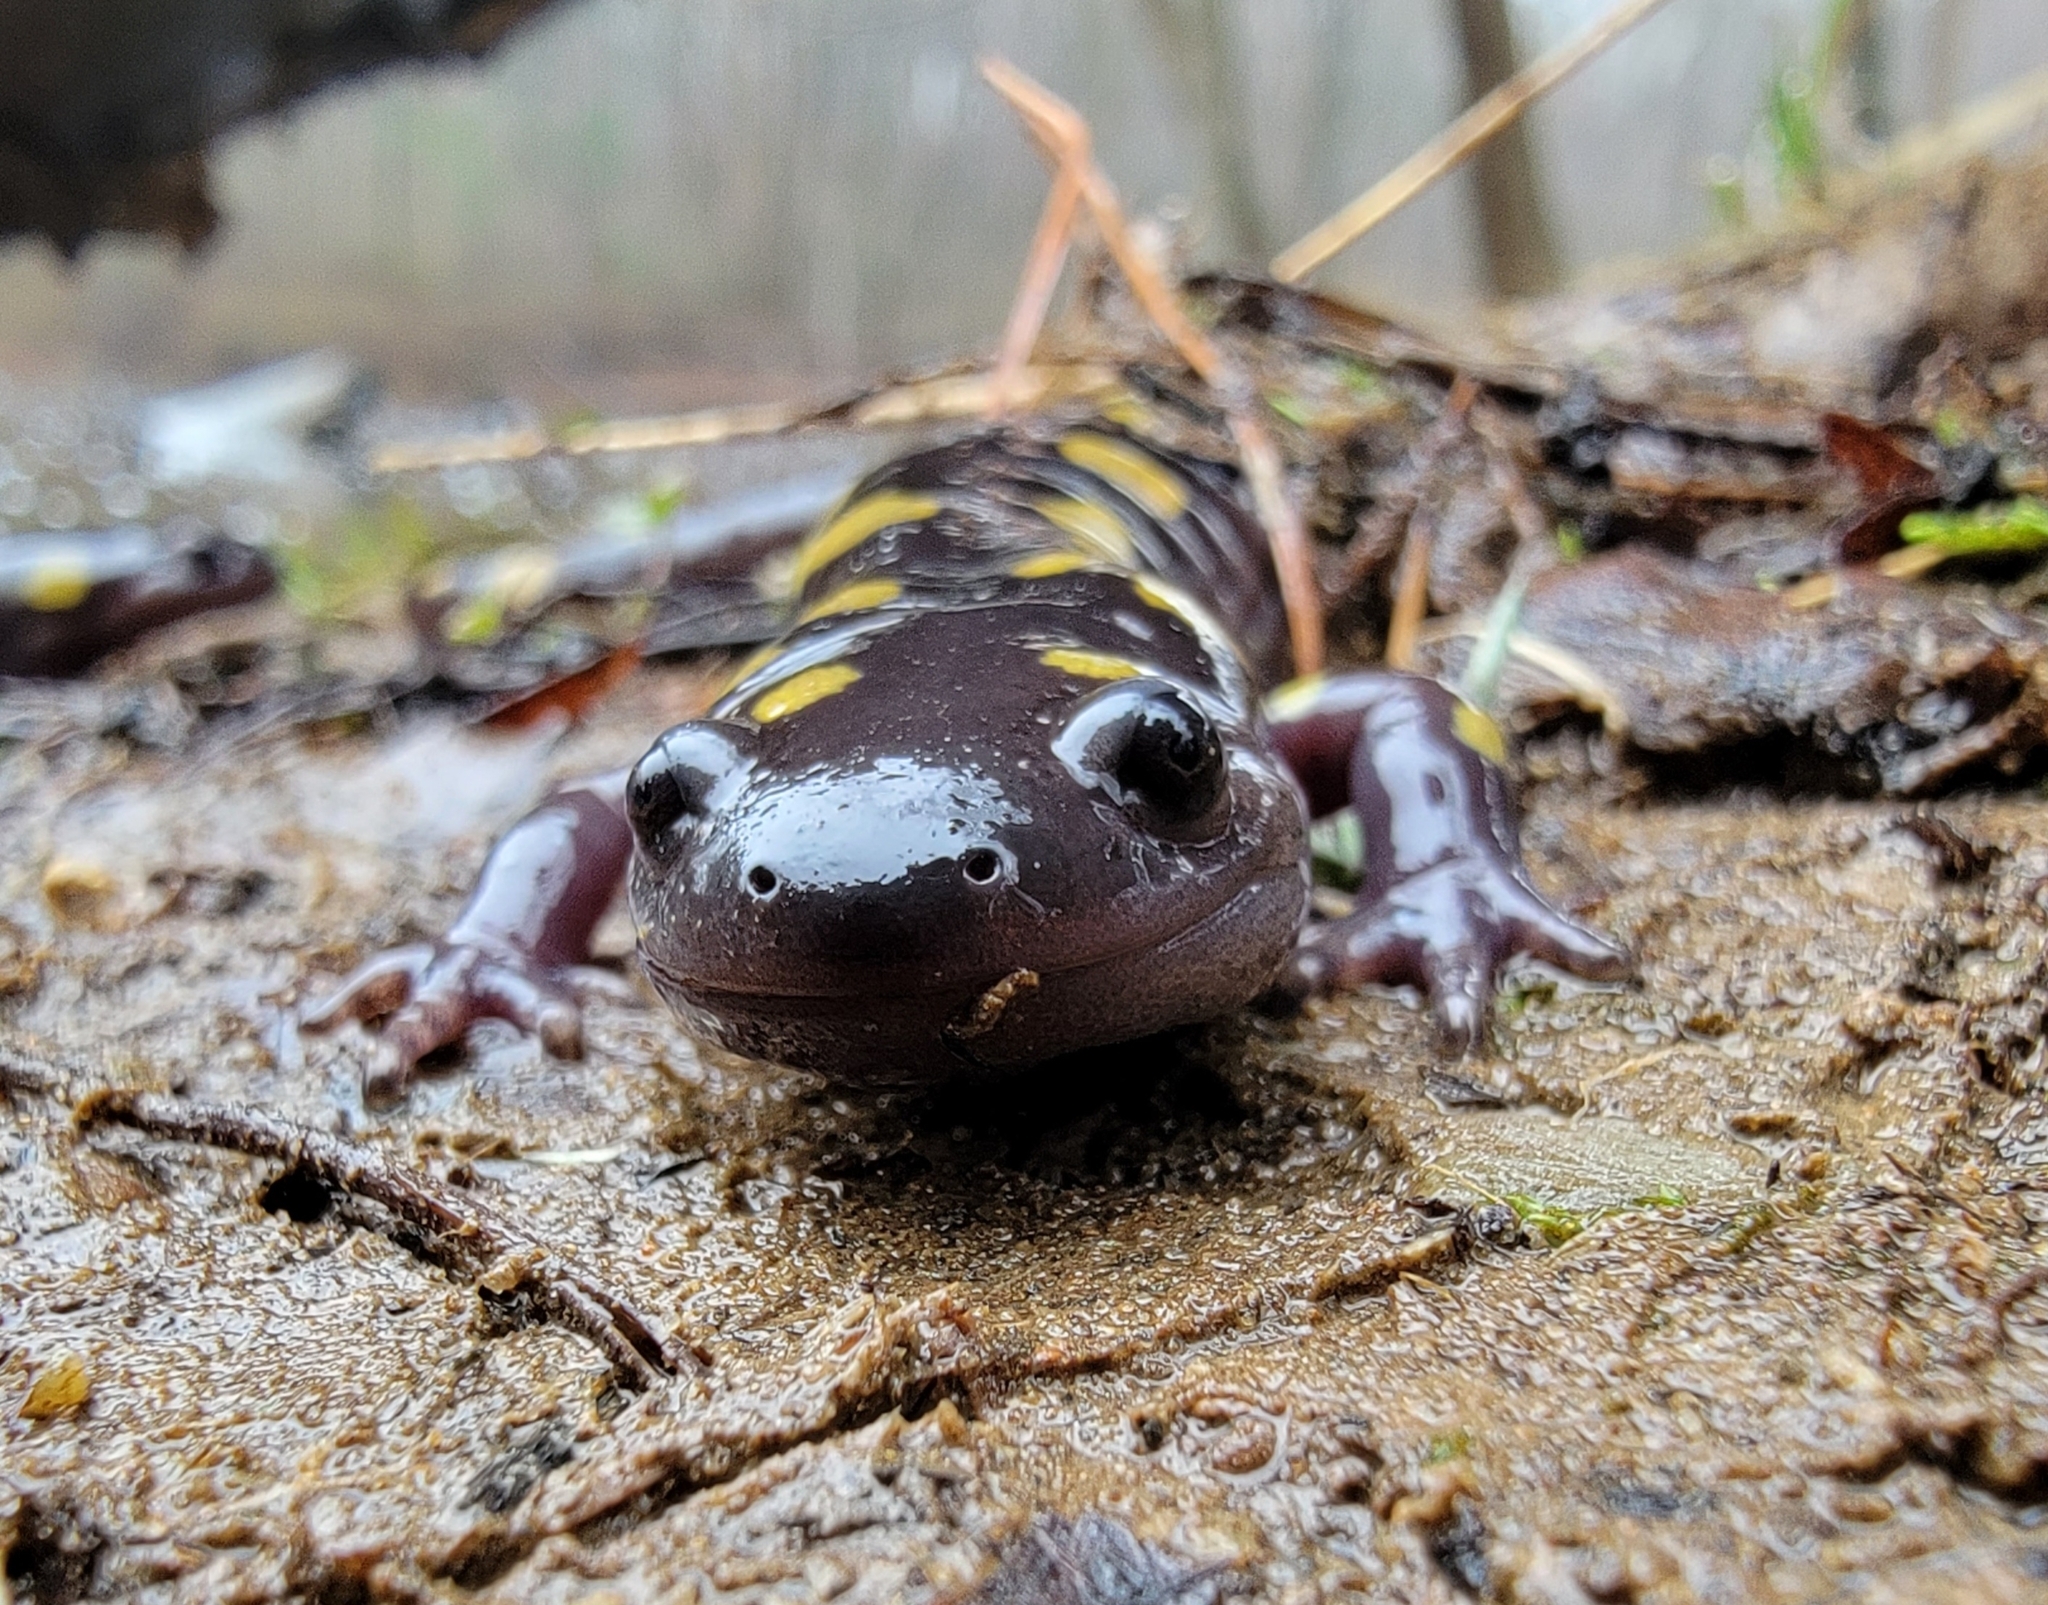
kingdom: Animalia
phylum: Chordata
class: Amphibia
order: Caudata
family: Ambystomatidae
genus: Ambystoma
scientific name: Ambystoma maculatum
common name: Spotted salamander
